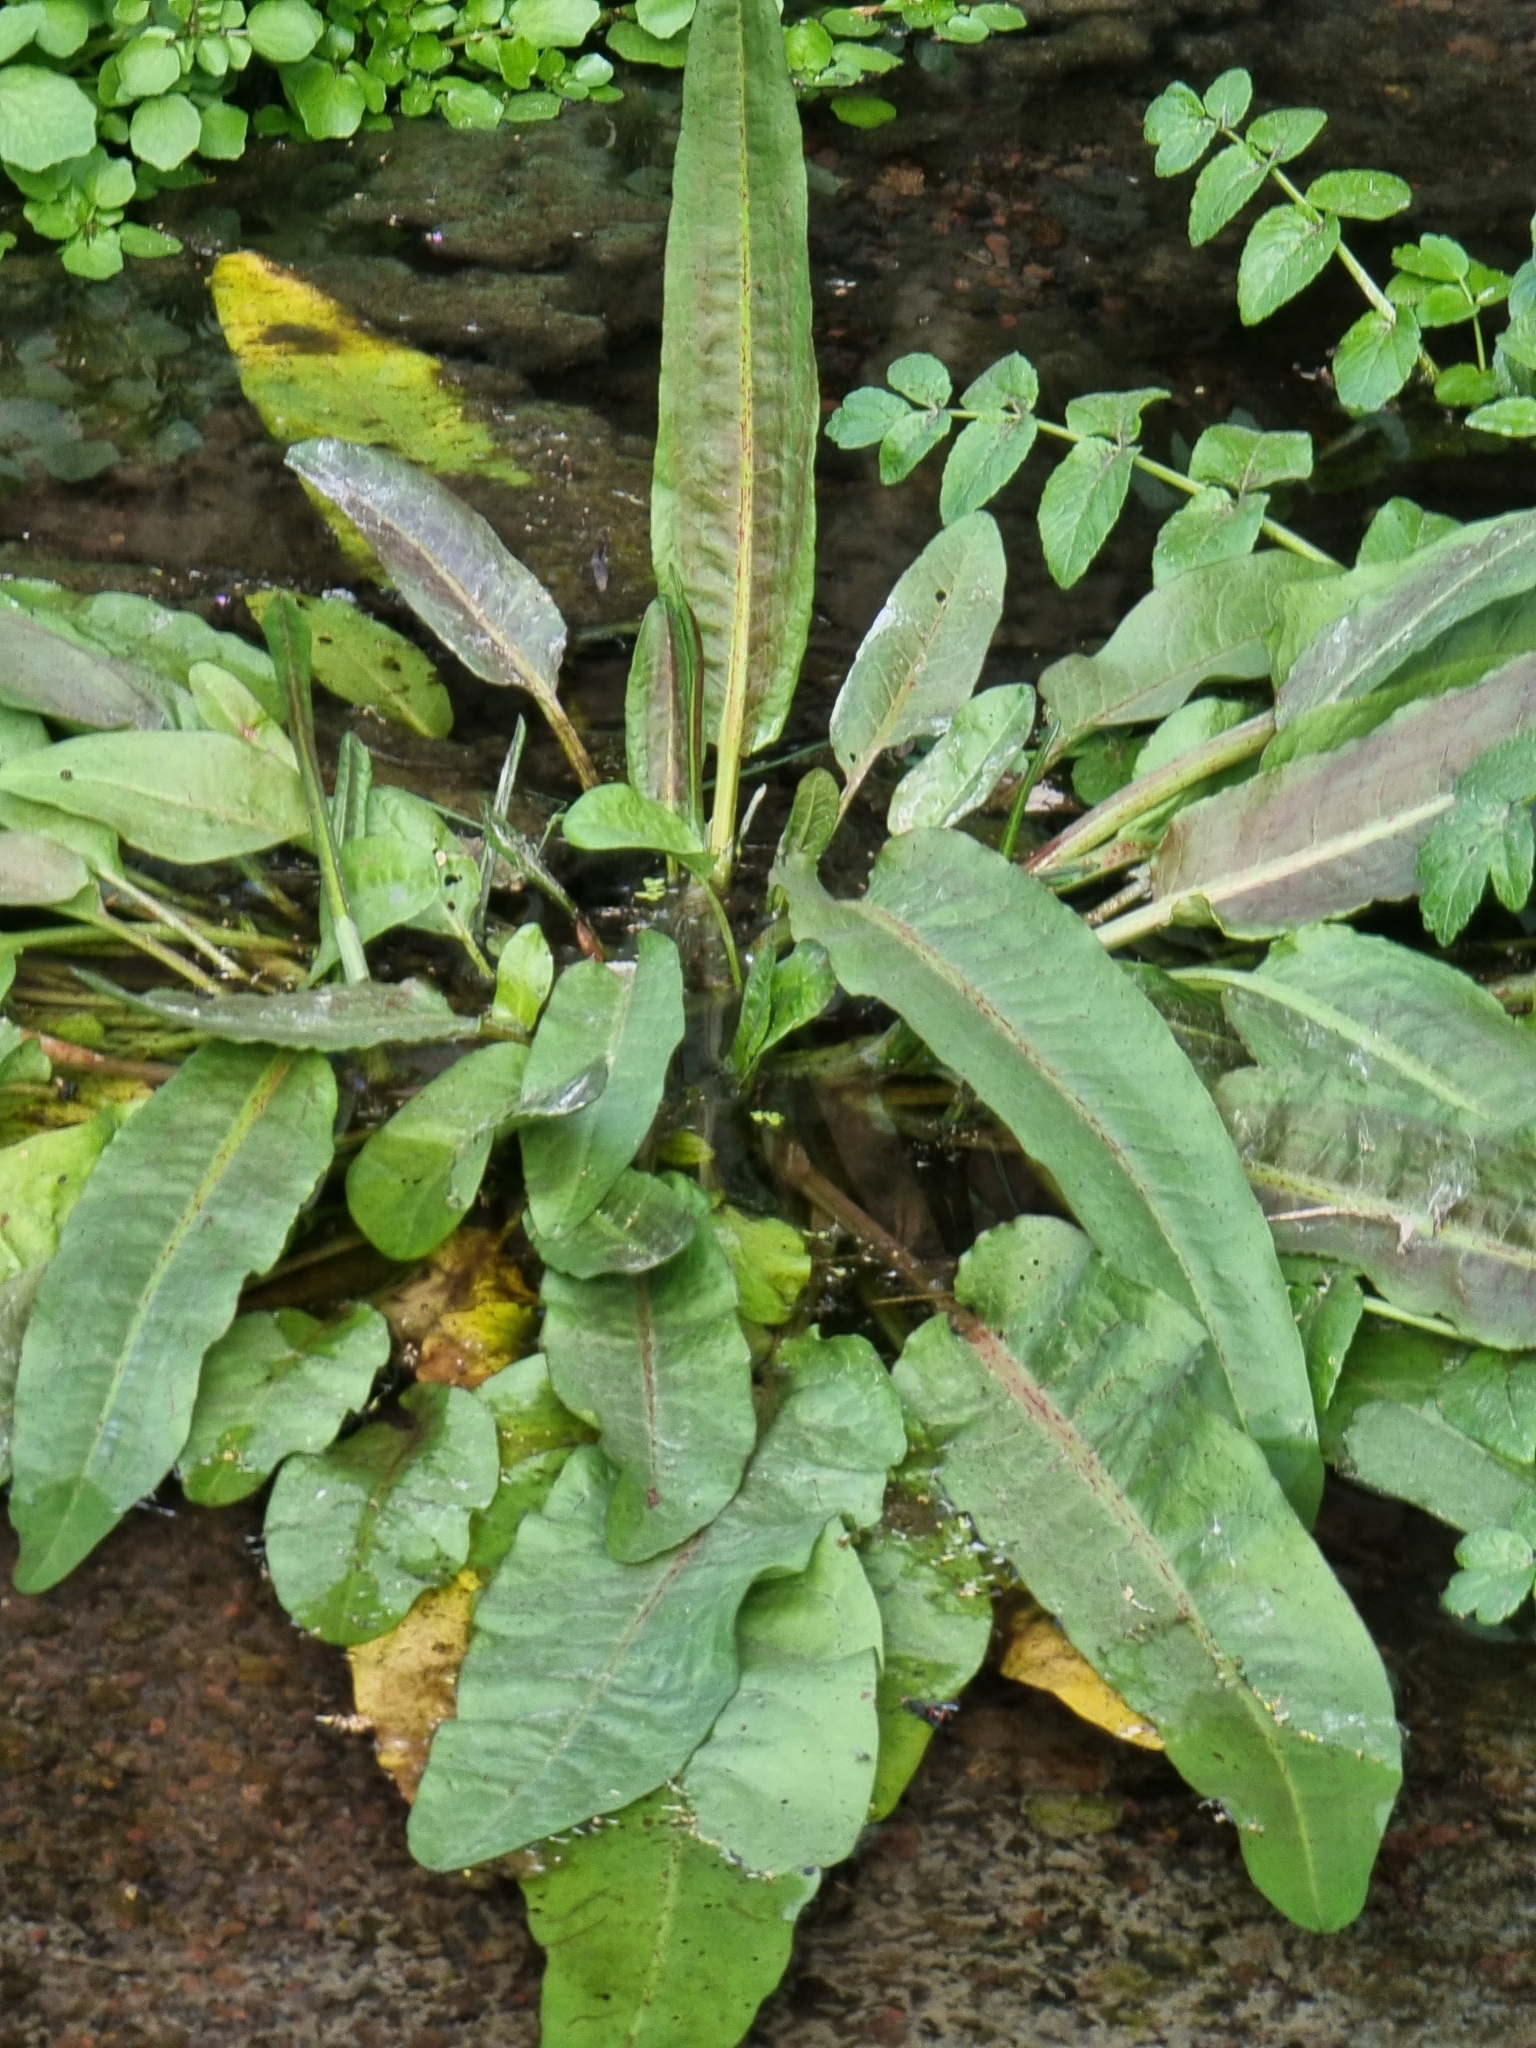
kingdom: Plantae
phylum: Tracheophyta
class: Magnoliopsida
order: Caryophyllales
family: Polygonaceae
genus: Rumex
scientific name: Rumex obtusifolius
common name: Bitter dock
